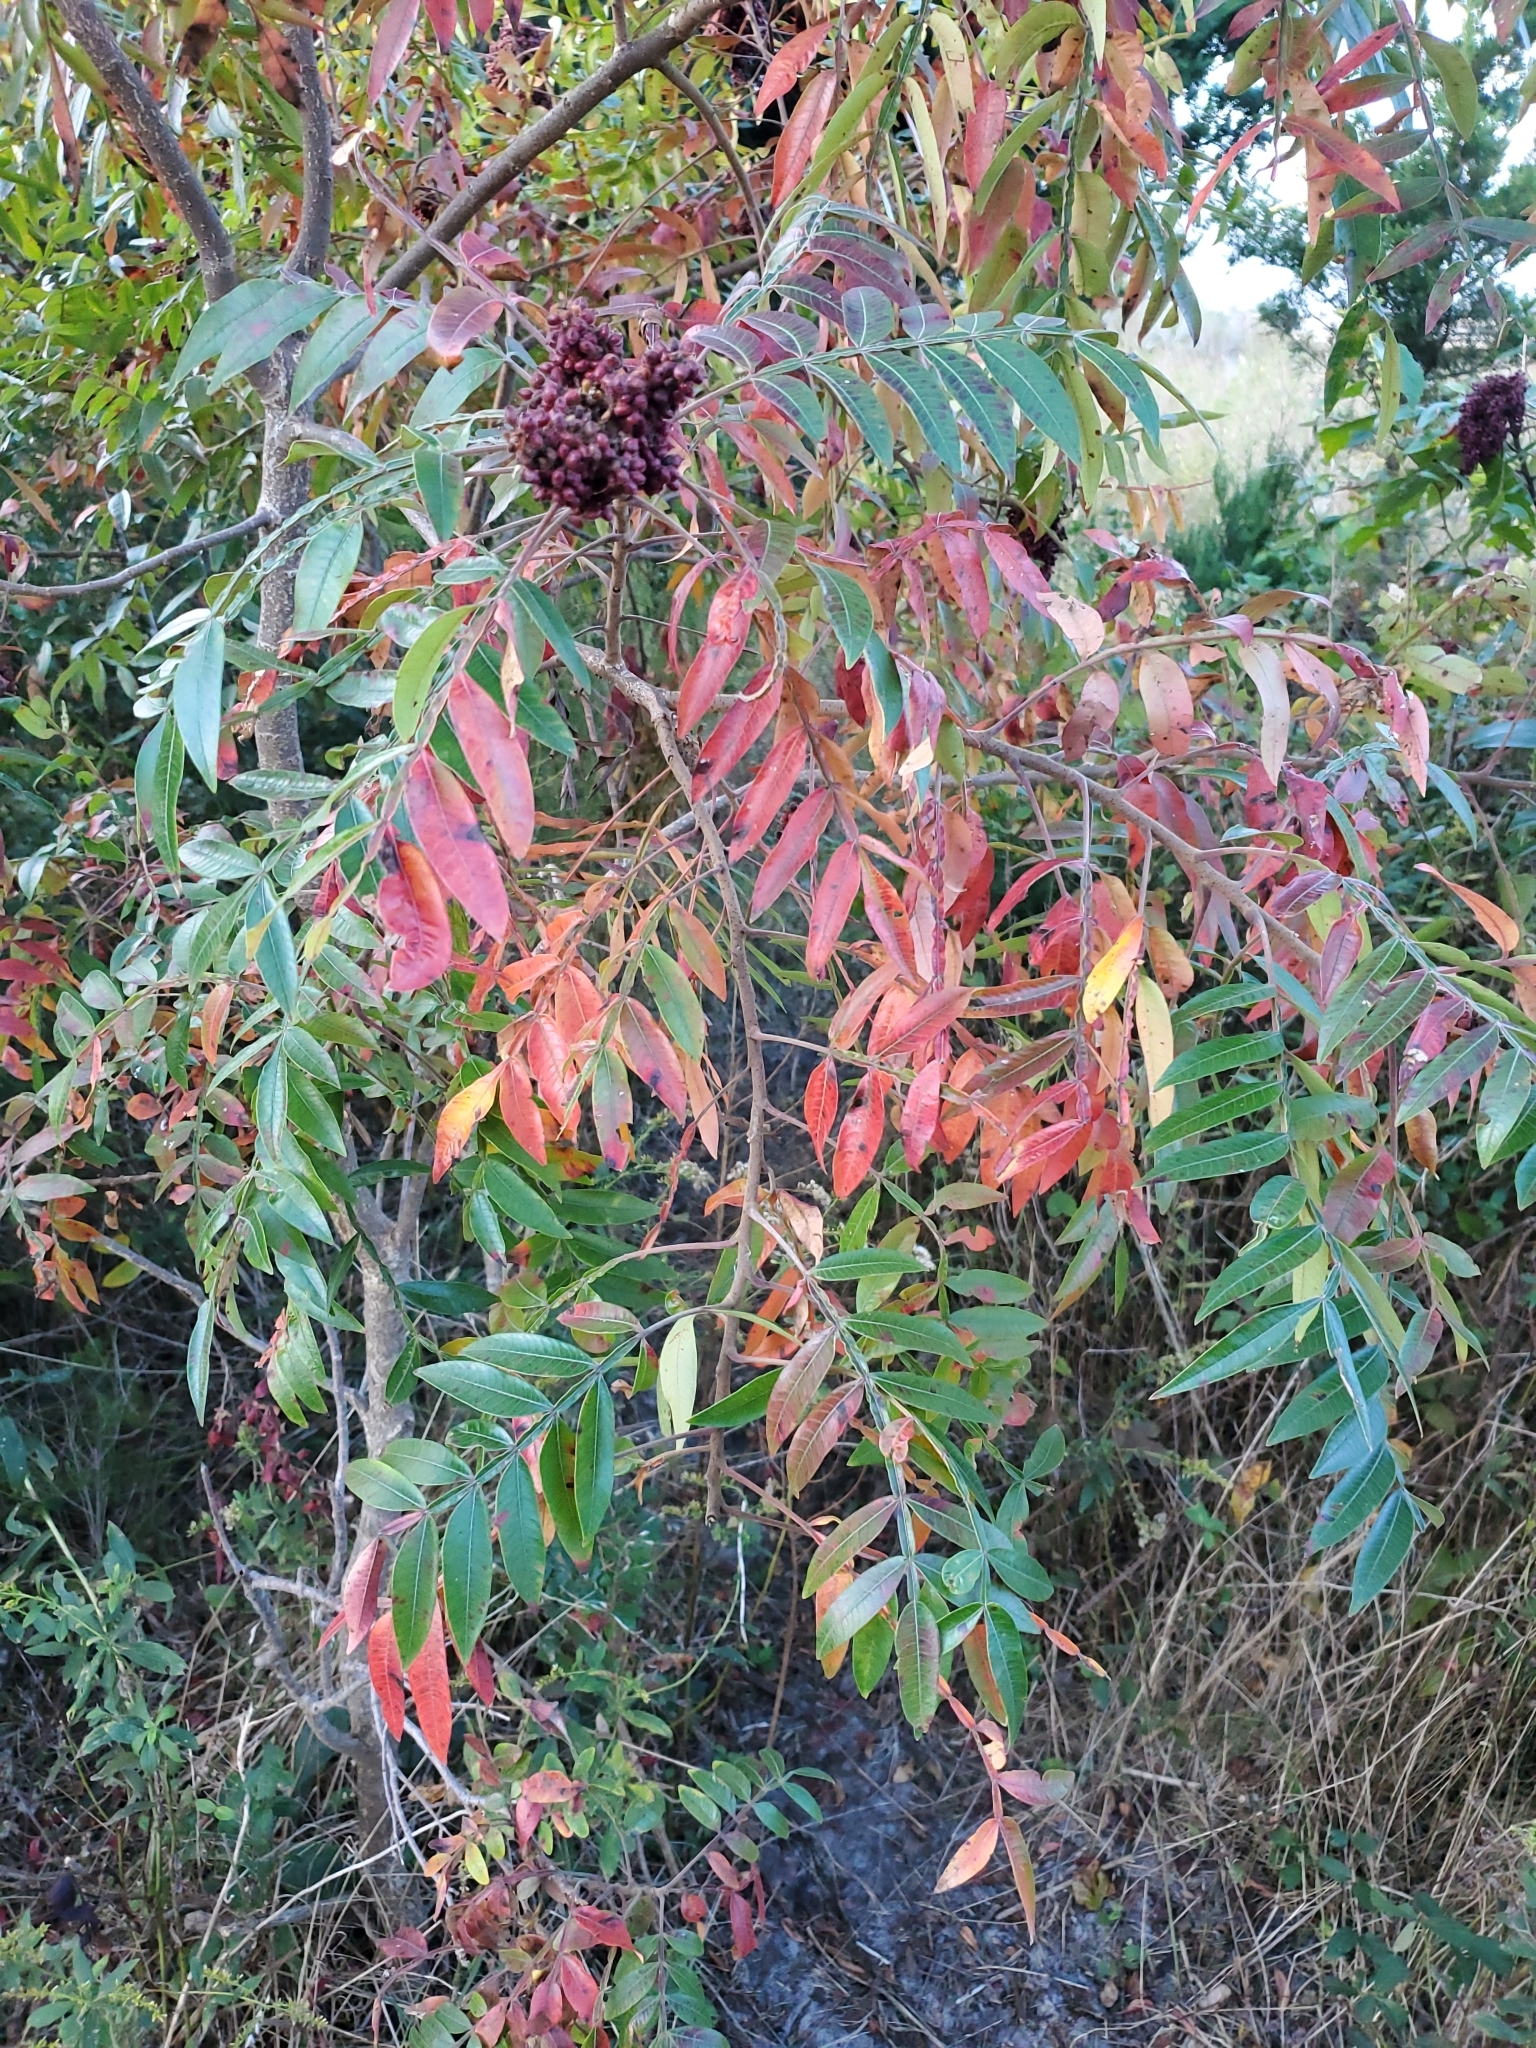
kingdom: Plantae
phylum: Tracheophyta
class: Magnoliopsida
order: Sapindales
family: Anacardiaceae
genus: Rhus
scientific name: Rhus copallina
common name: Shining sumac
